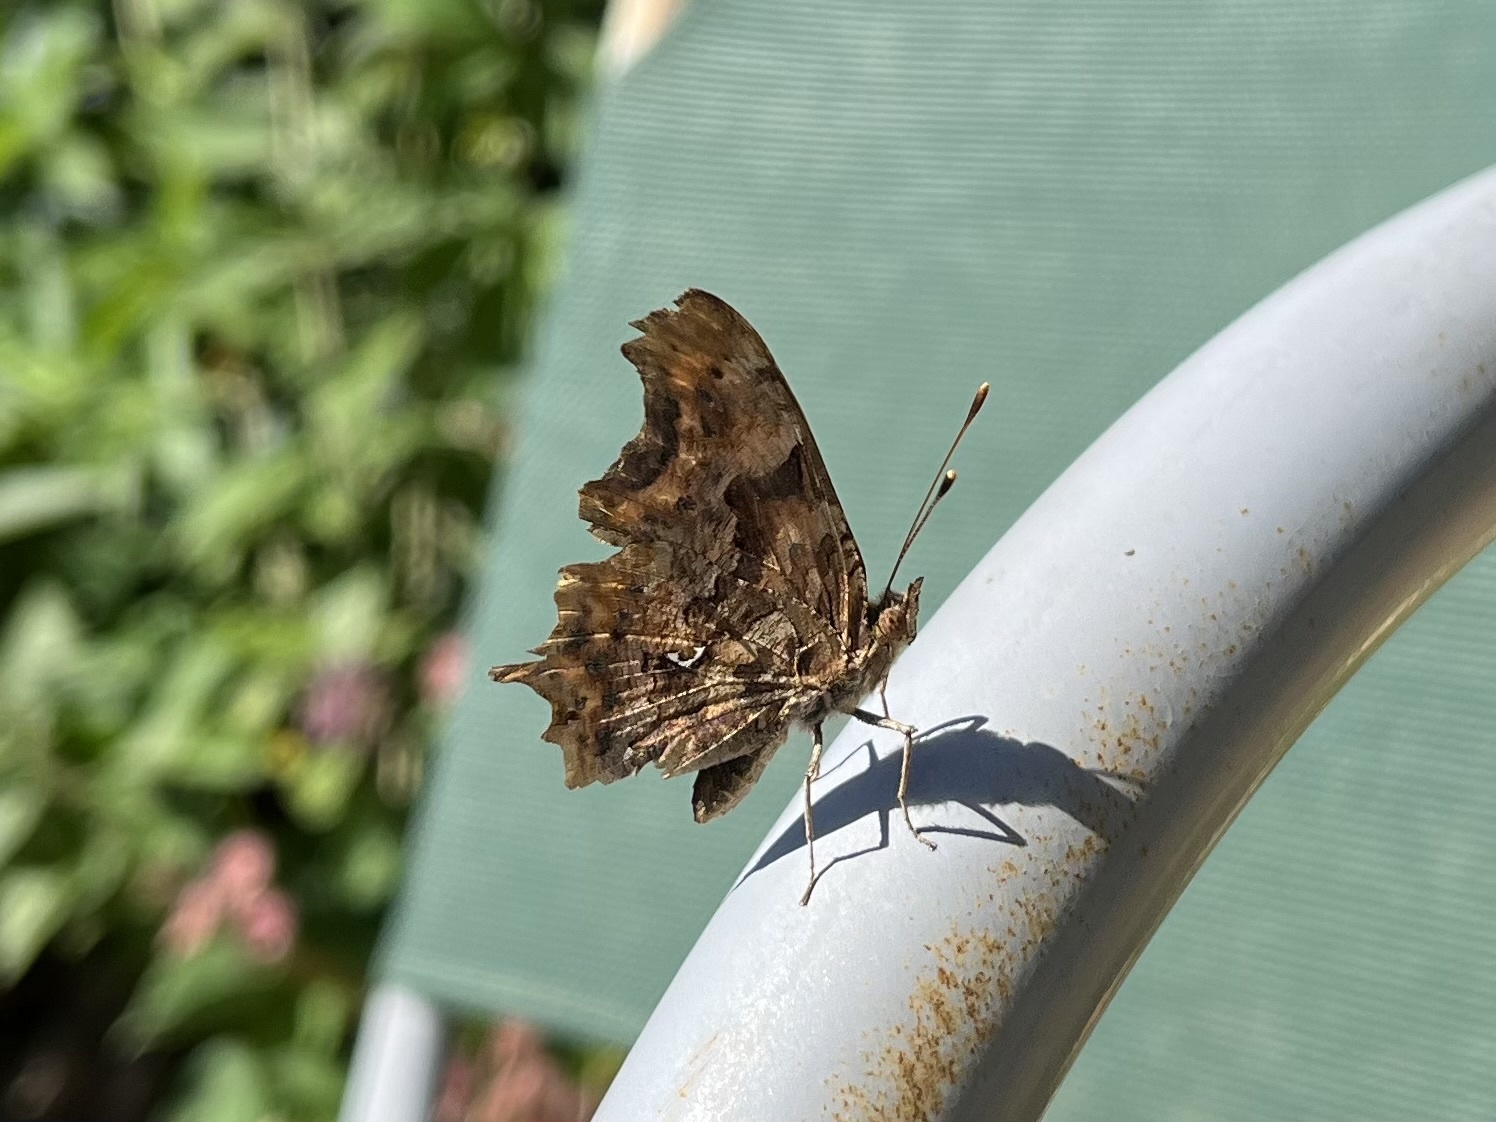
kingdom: Animalia
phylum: Arthropoda
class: Insecta
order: Lepidoptera
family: Nymphalidae
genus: Polygonia
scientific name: Polygonia c-album
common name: Comma
